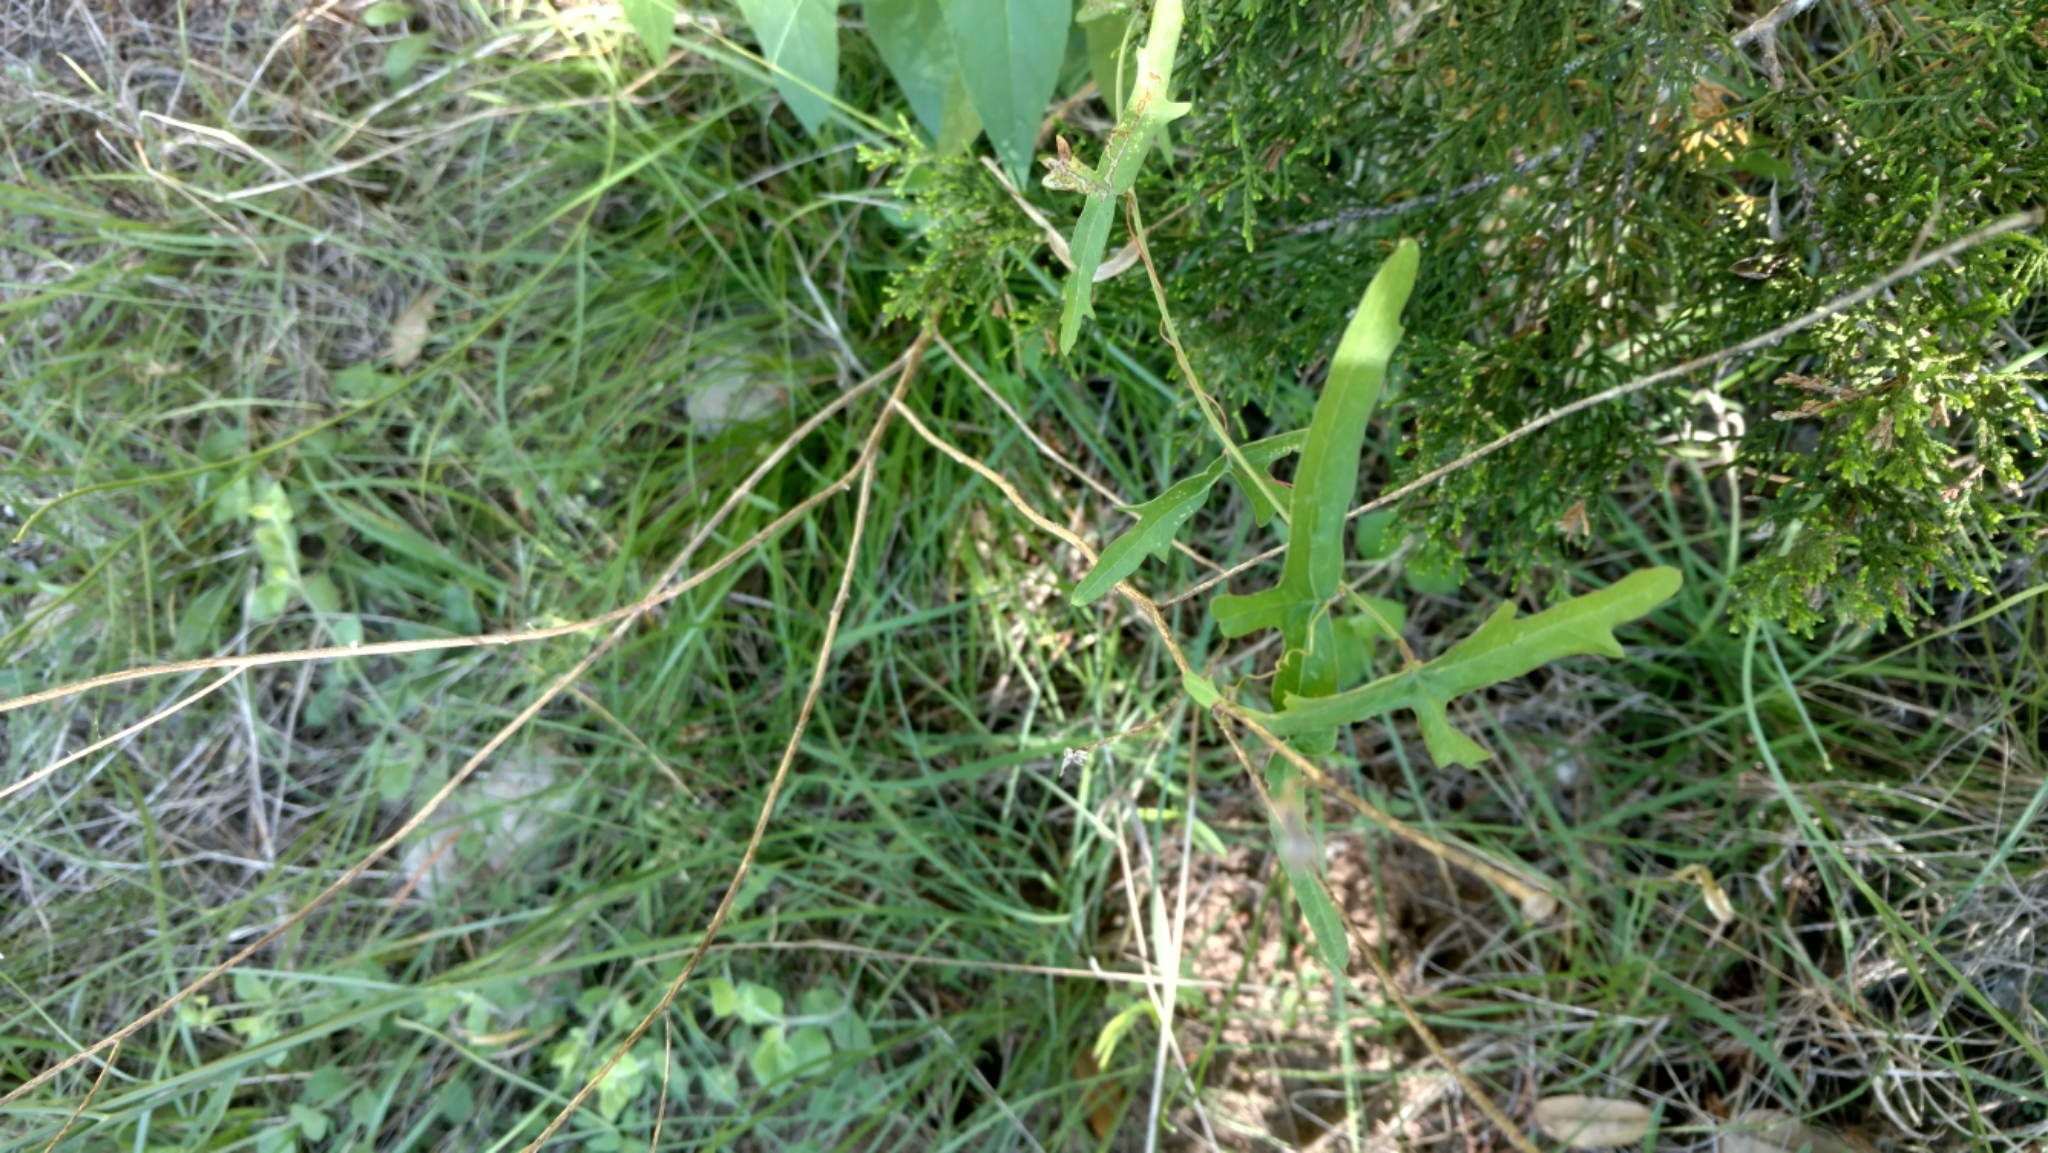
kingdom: Plantae
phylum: Tracheophyta
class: Magnoliopsida
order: Malpighiales
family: Passifloraceae
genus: Passiflora
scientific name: Passiflora tenuiloba
